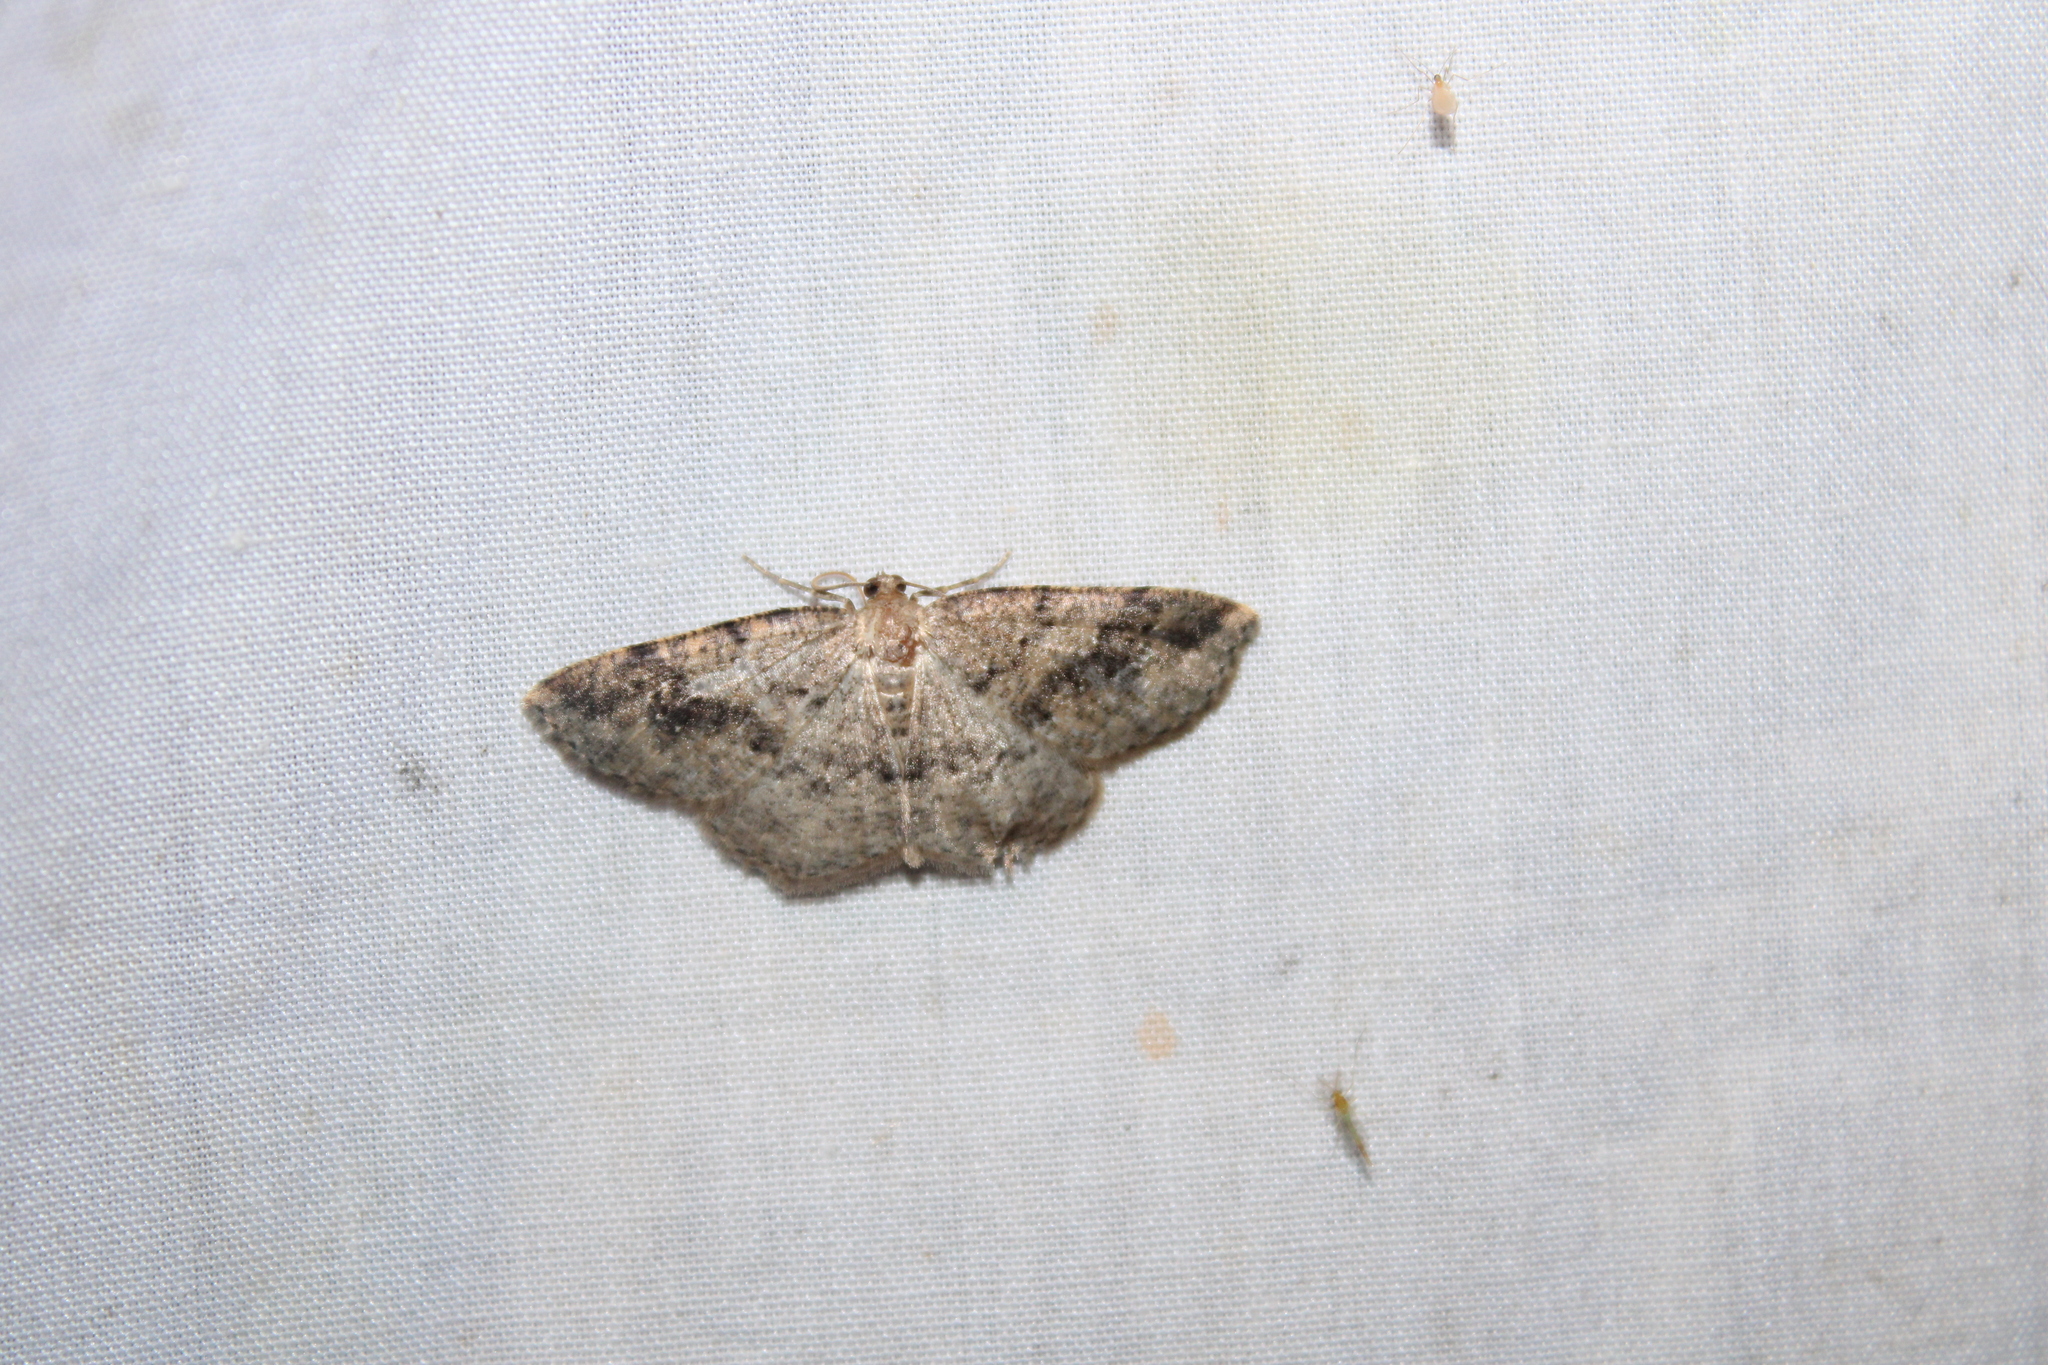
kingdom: Animalia
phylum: Arthropoda
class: Insecta
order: Lepidoptera
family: Geometridae
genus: Homochlodes
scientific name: Homochlodes fritillaria
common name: Pale homochlodes
